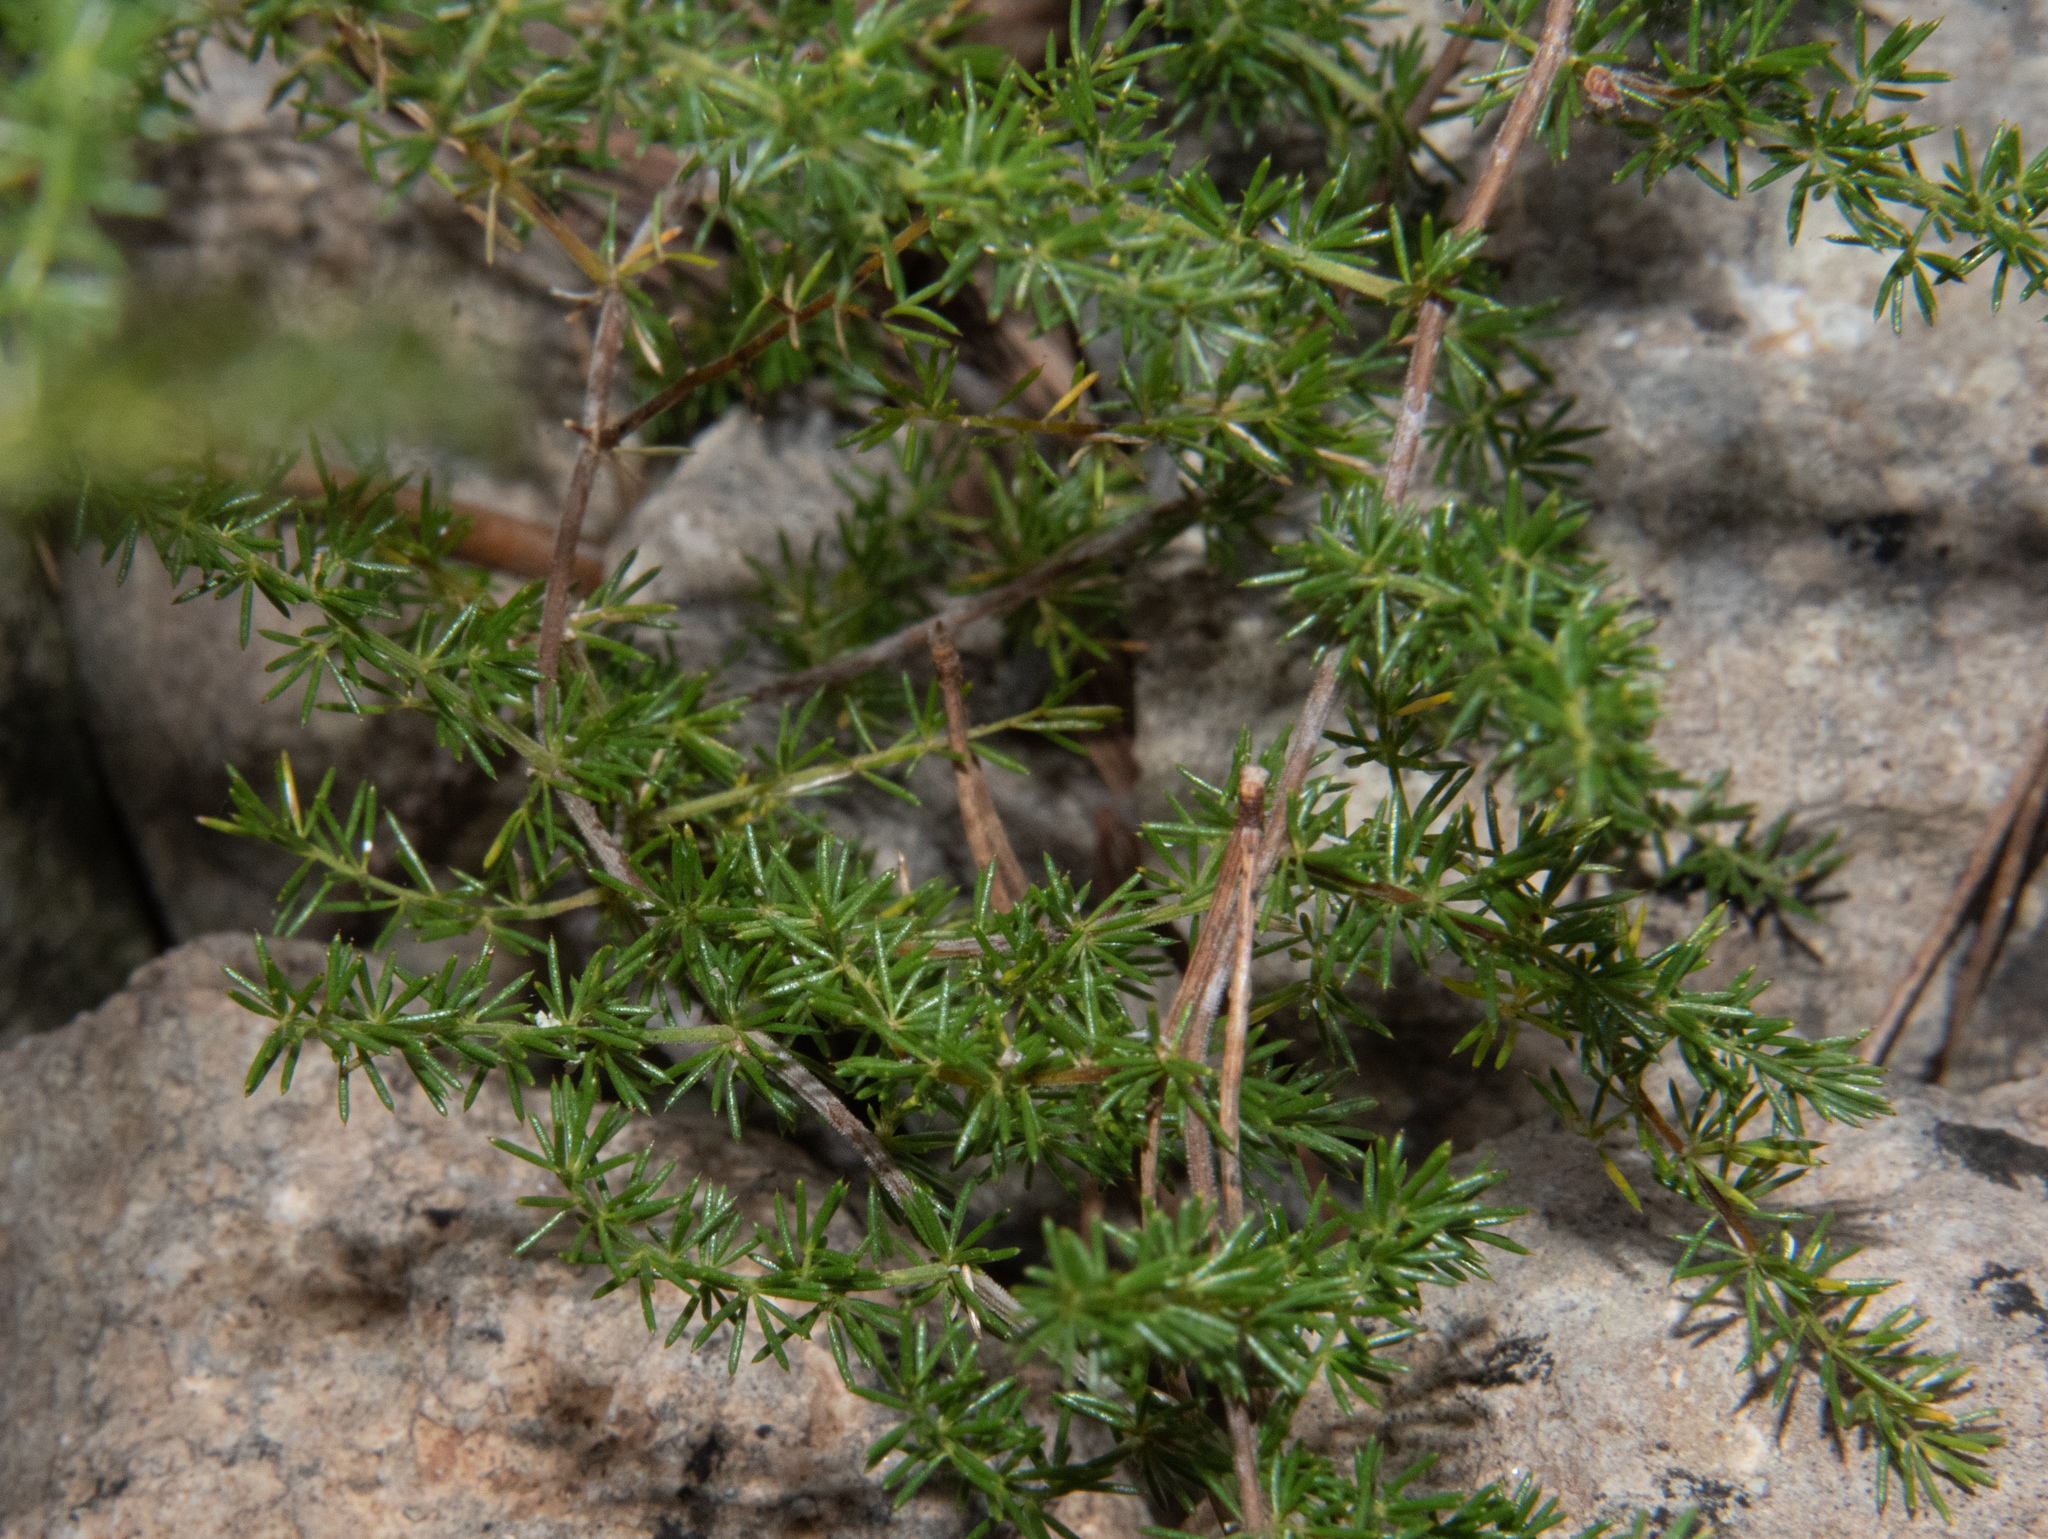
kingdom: Plantae
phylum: Tracheophyta
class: Liliopsida
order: Asparagales
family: Asparagaceae
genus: Asparagus
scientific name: Asparagus acutifolius
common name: Wild asparagus
